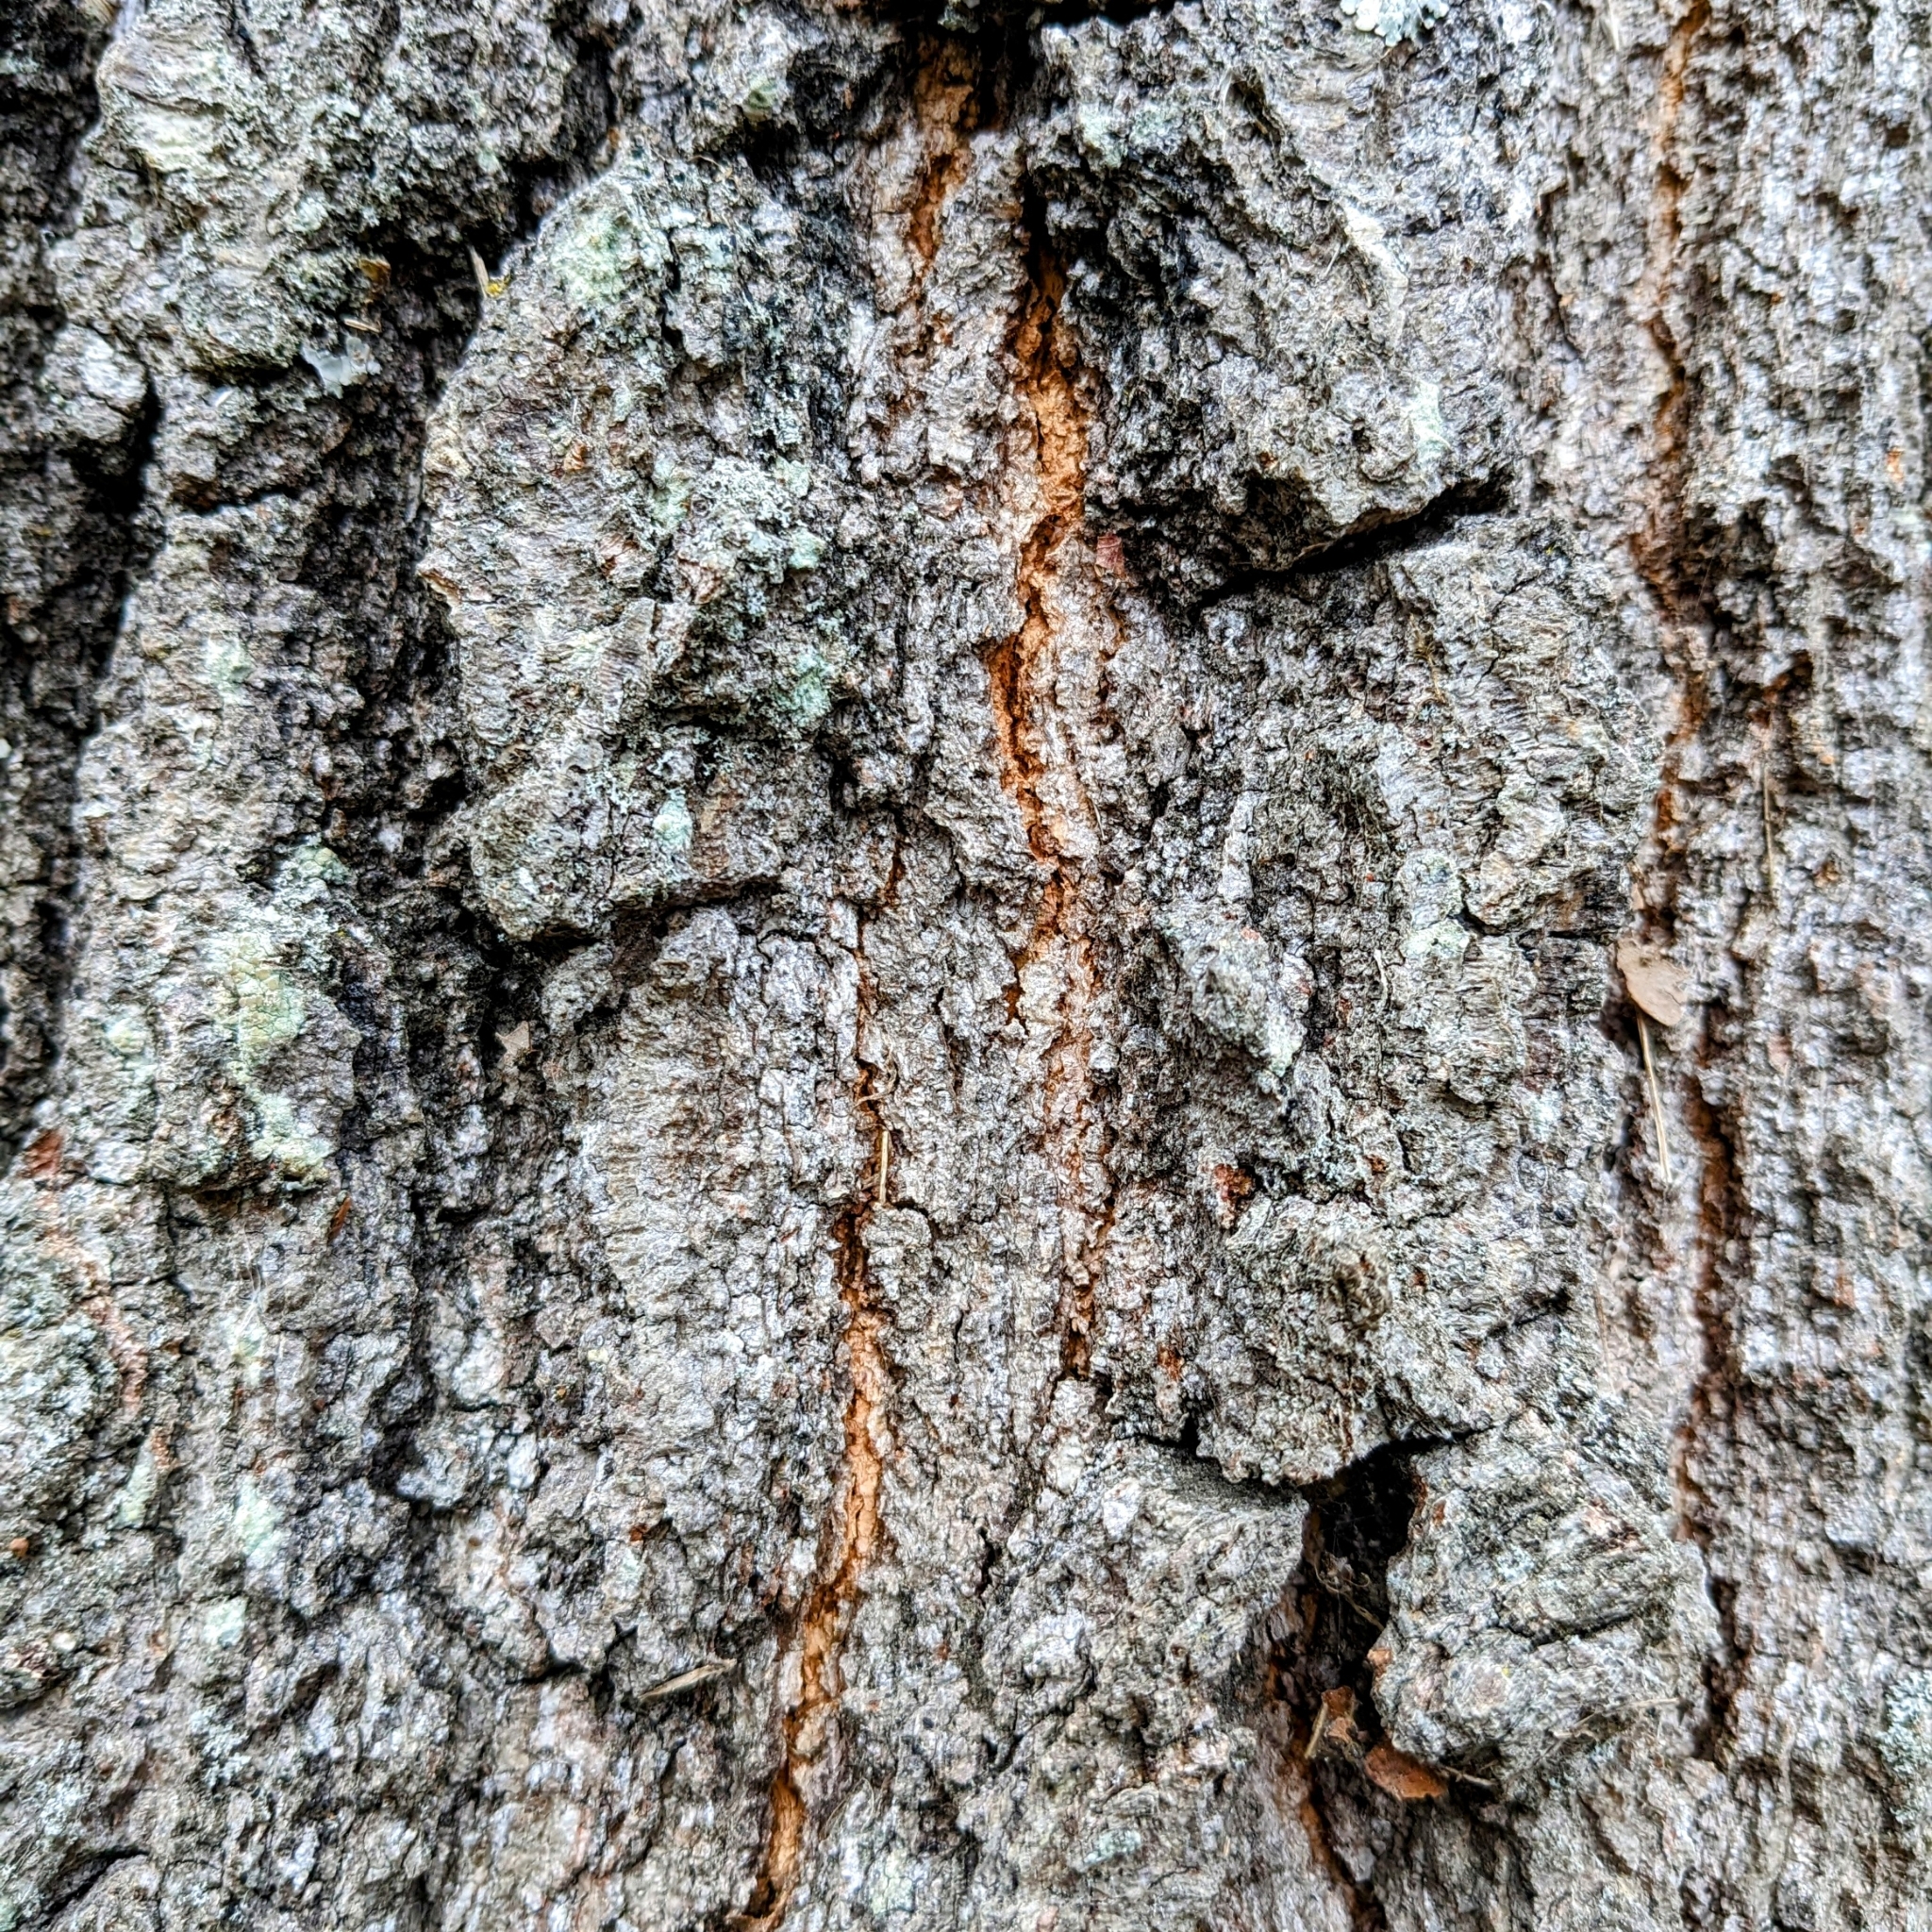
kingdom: Plantae
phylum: Tracheophyta
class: Magnoliopsida
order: Fagales
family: Fagaceae
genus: Quercus
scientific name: Quercus phellos
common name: Willow oak
